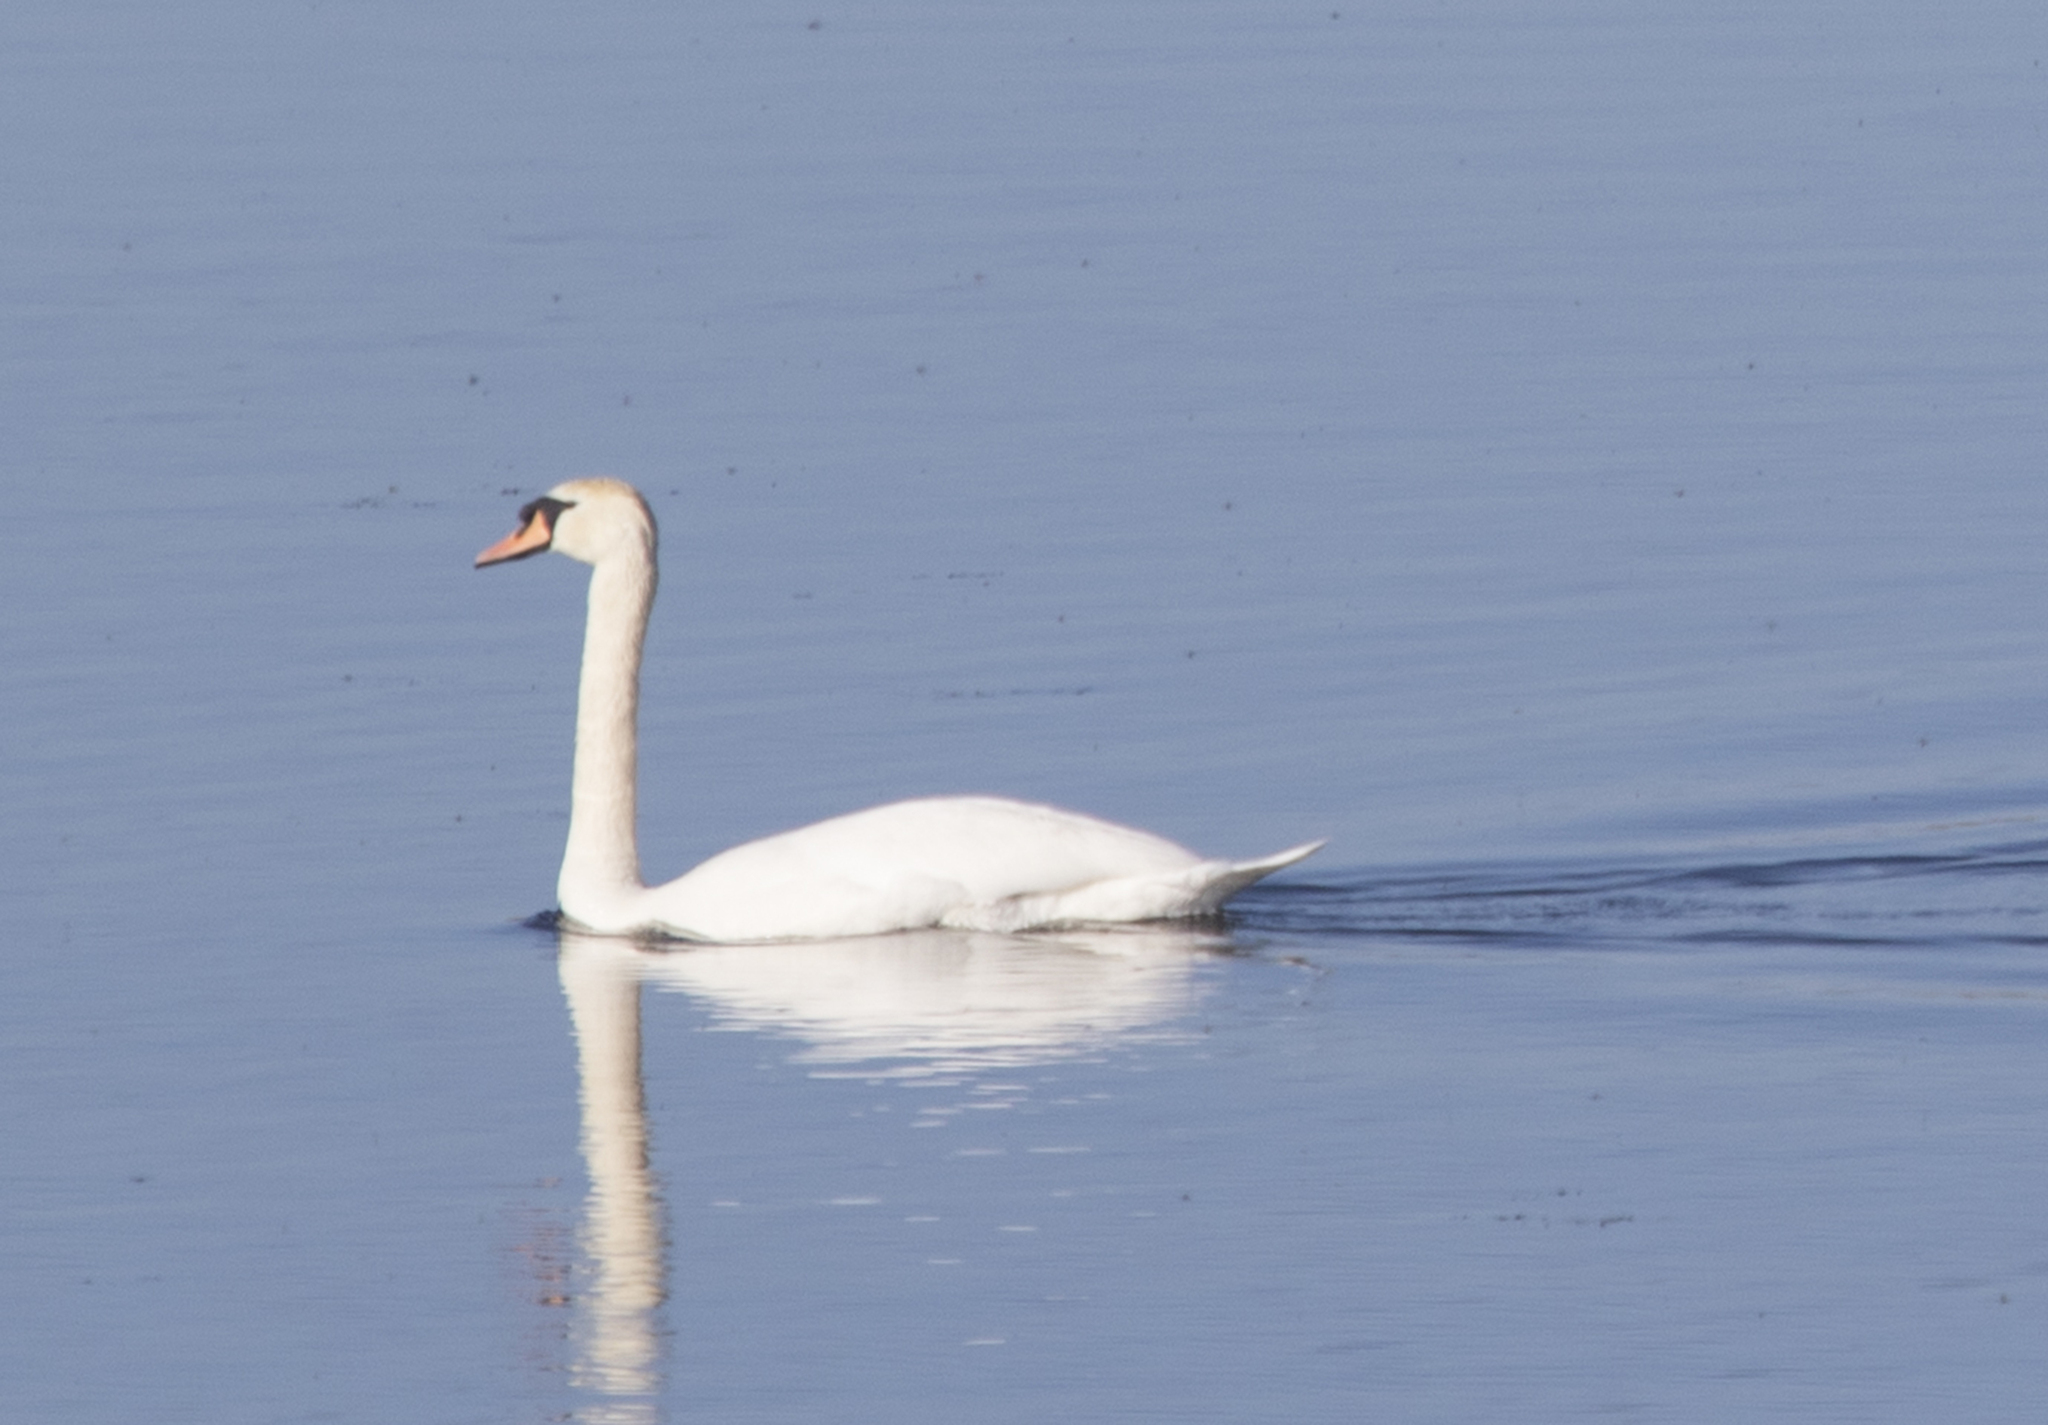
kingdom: Animalia
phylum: Chordata
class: Aves
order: Anseriformes
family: Anatidae
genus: Cygnus
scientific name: Cygnus olor
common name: Mute swan
